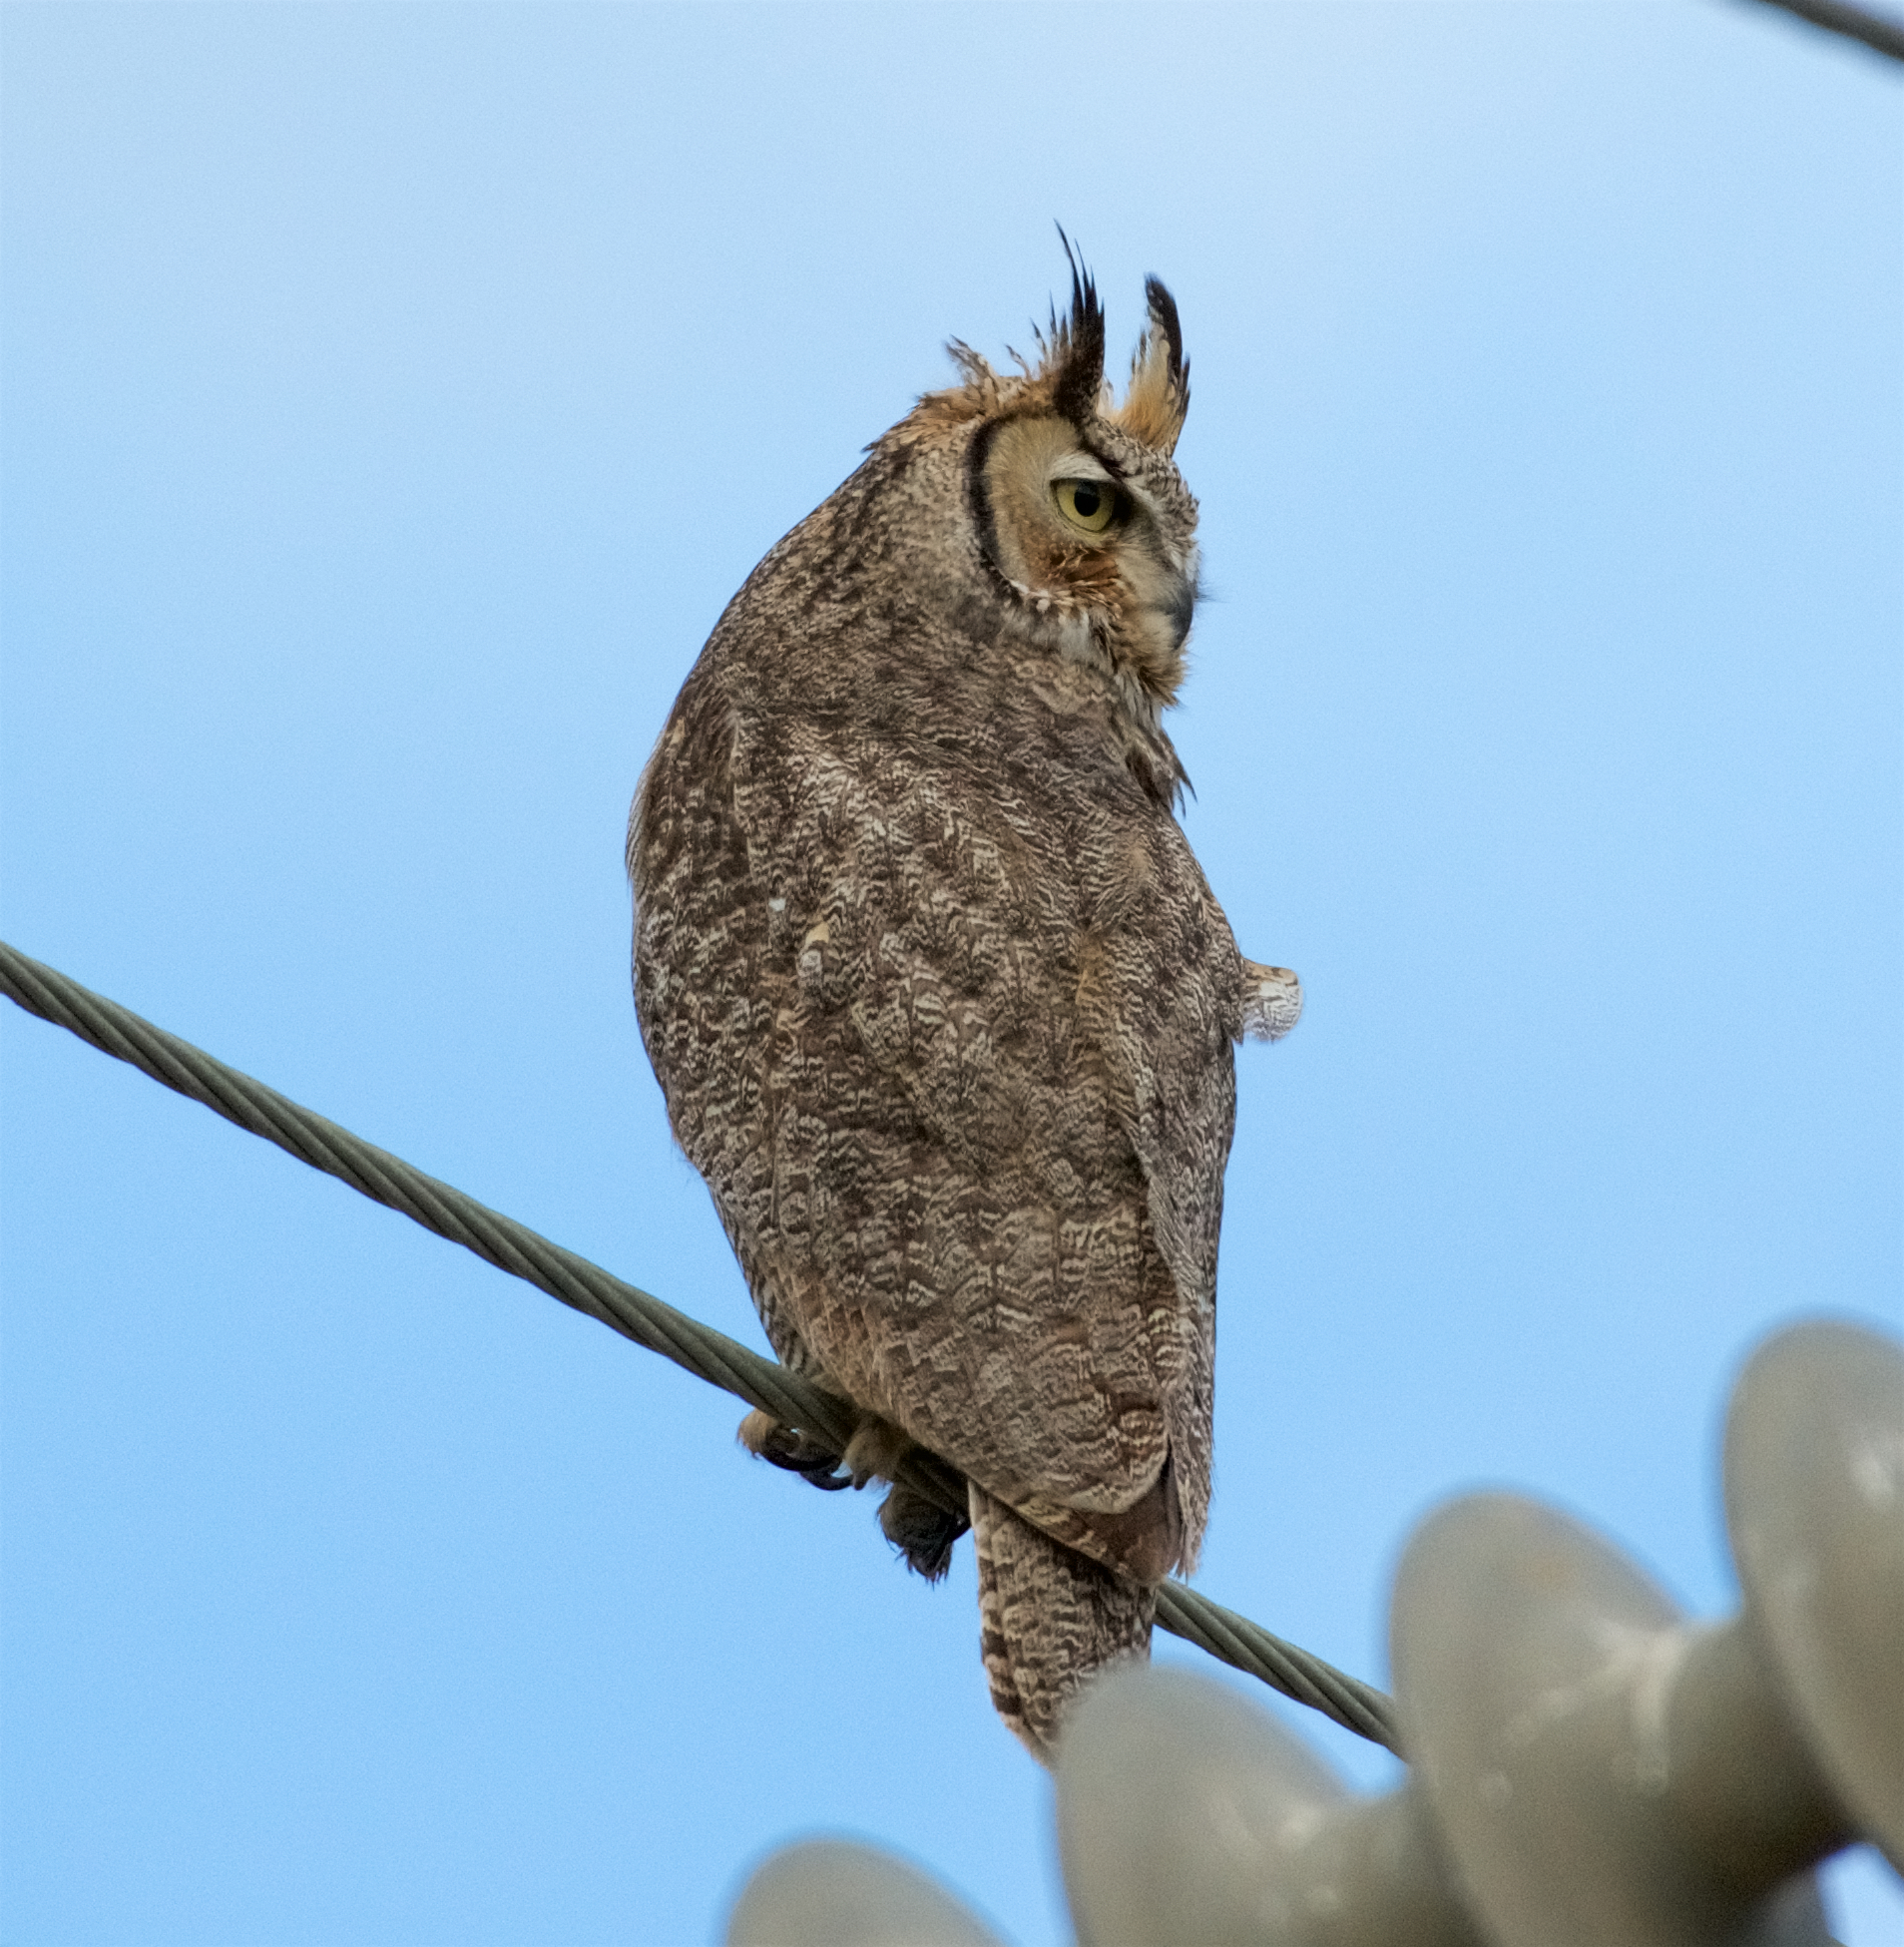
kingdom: Animalia
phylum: Chordata
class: Aves
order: Strigiformes
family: Strigidae
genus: Bubo
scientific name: Bubo virginianus
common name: Great horned owl
